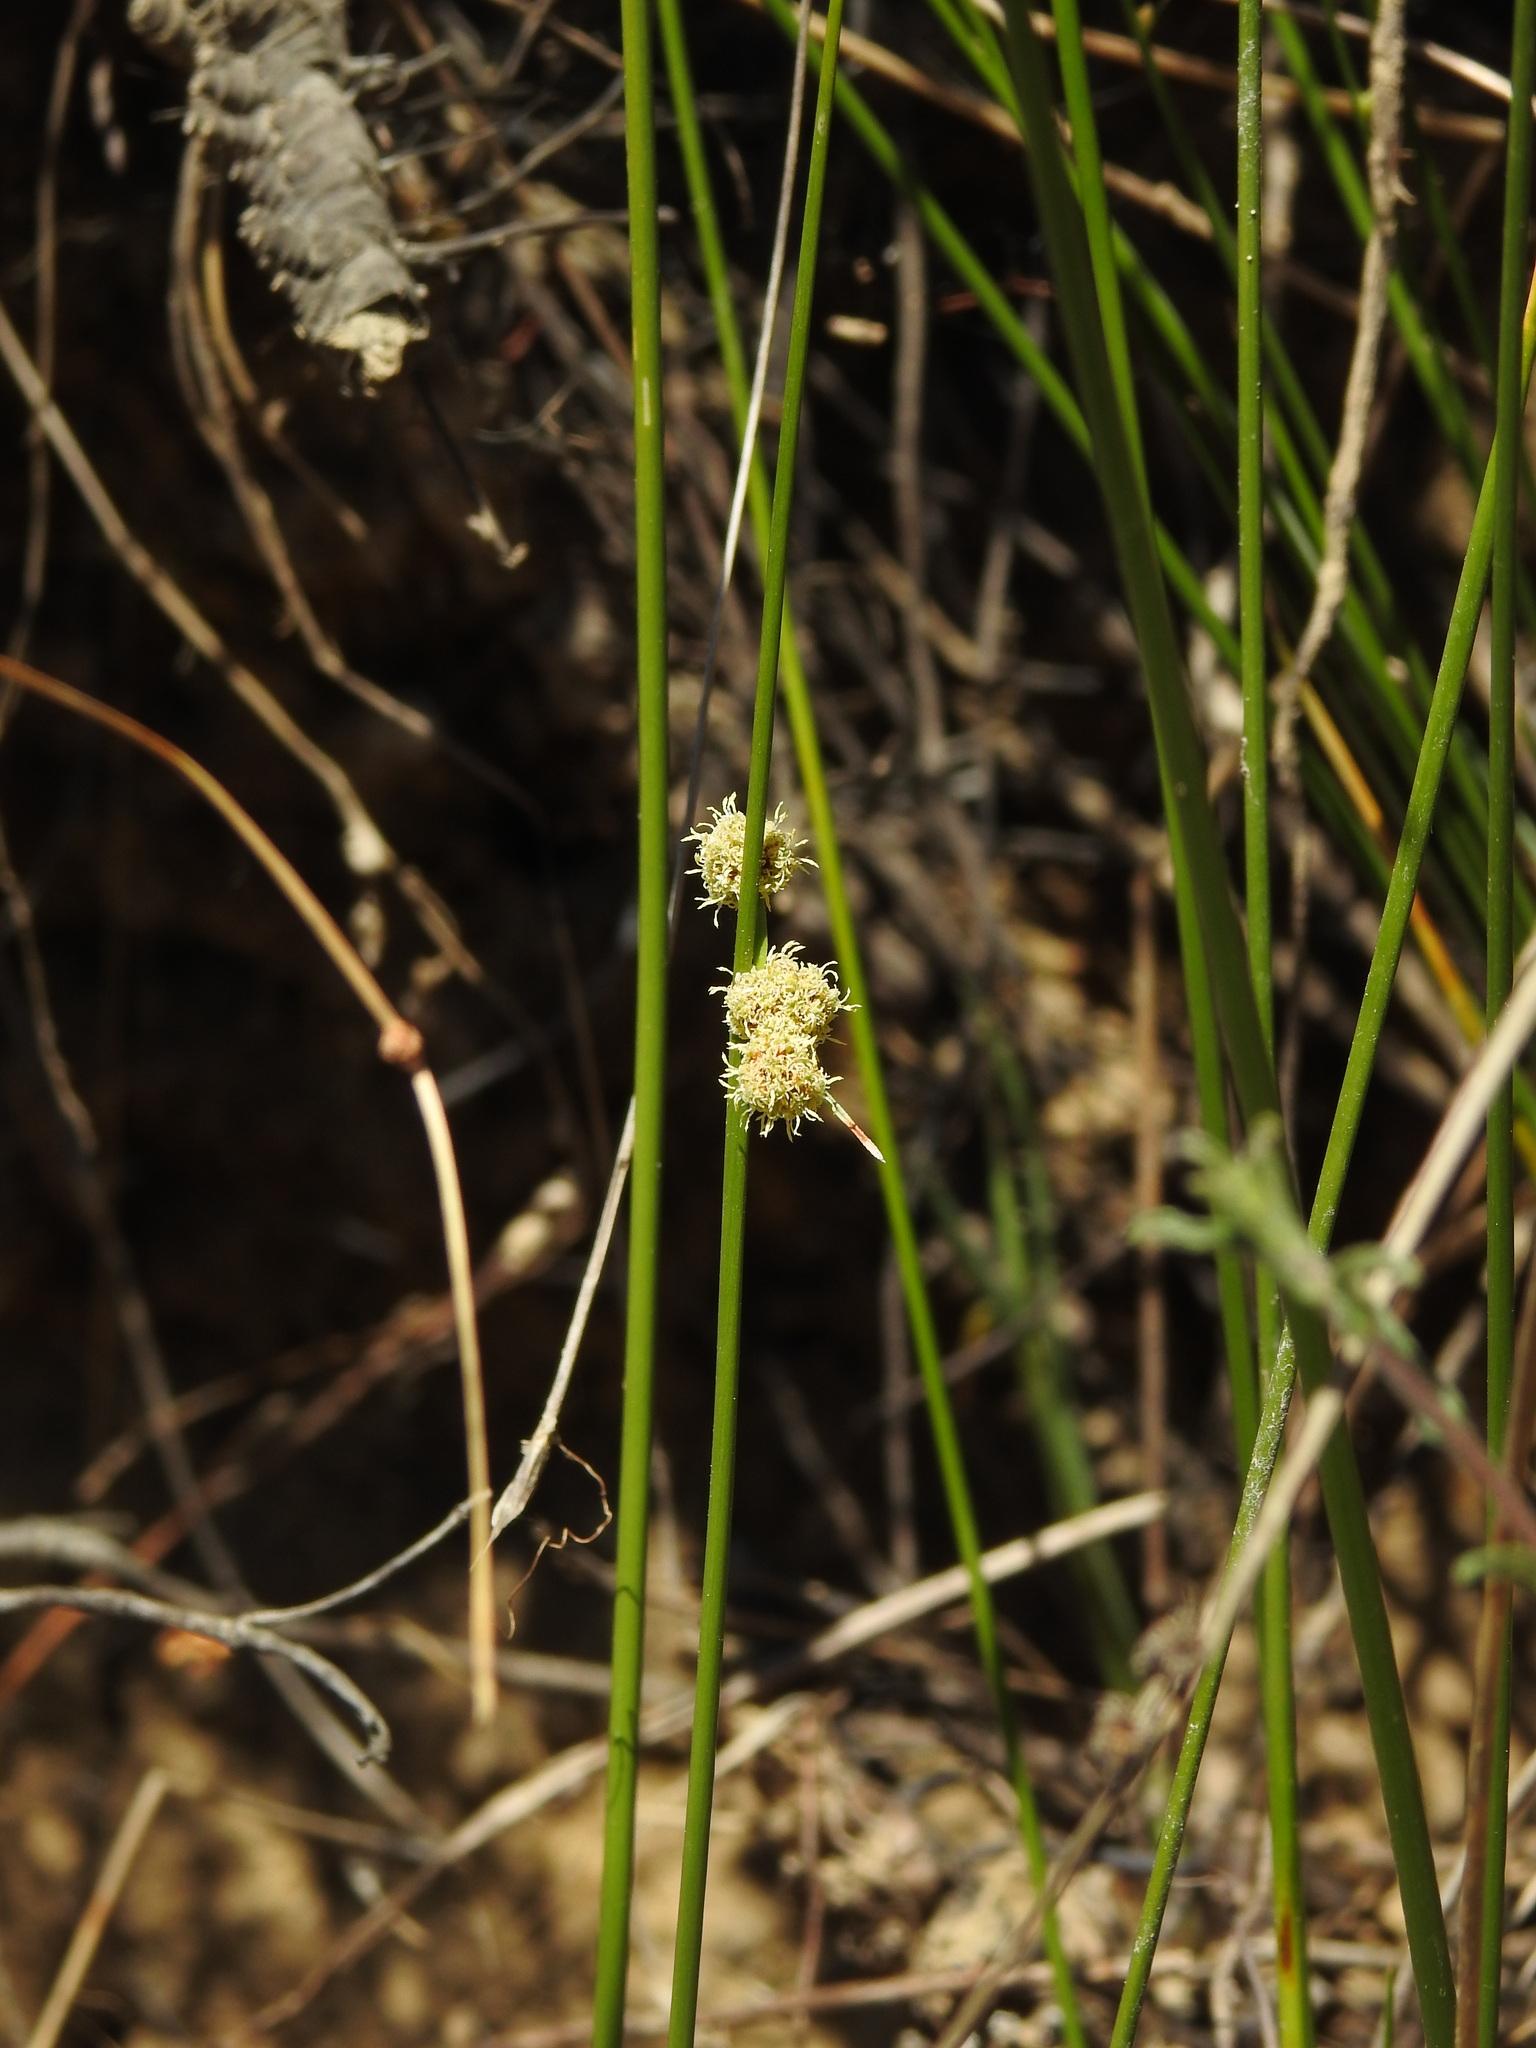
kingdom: Plantae
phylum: Tracheophyta
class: Liliopsida
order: Poales
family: Cyperaceae
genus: Scirpoides
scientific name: Scirpoides holoschoenus
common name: Round-headed club-rush
